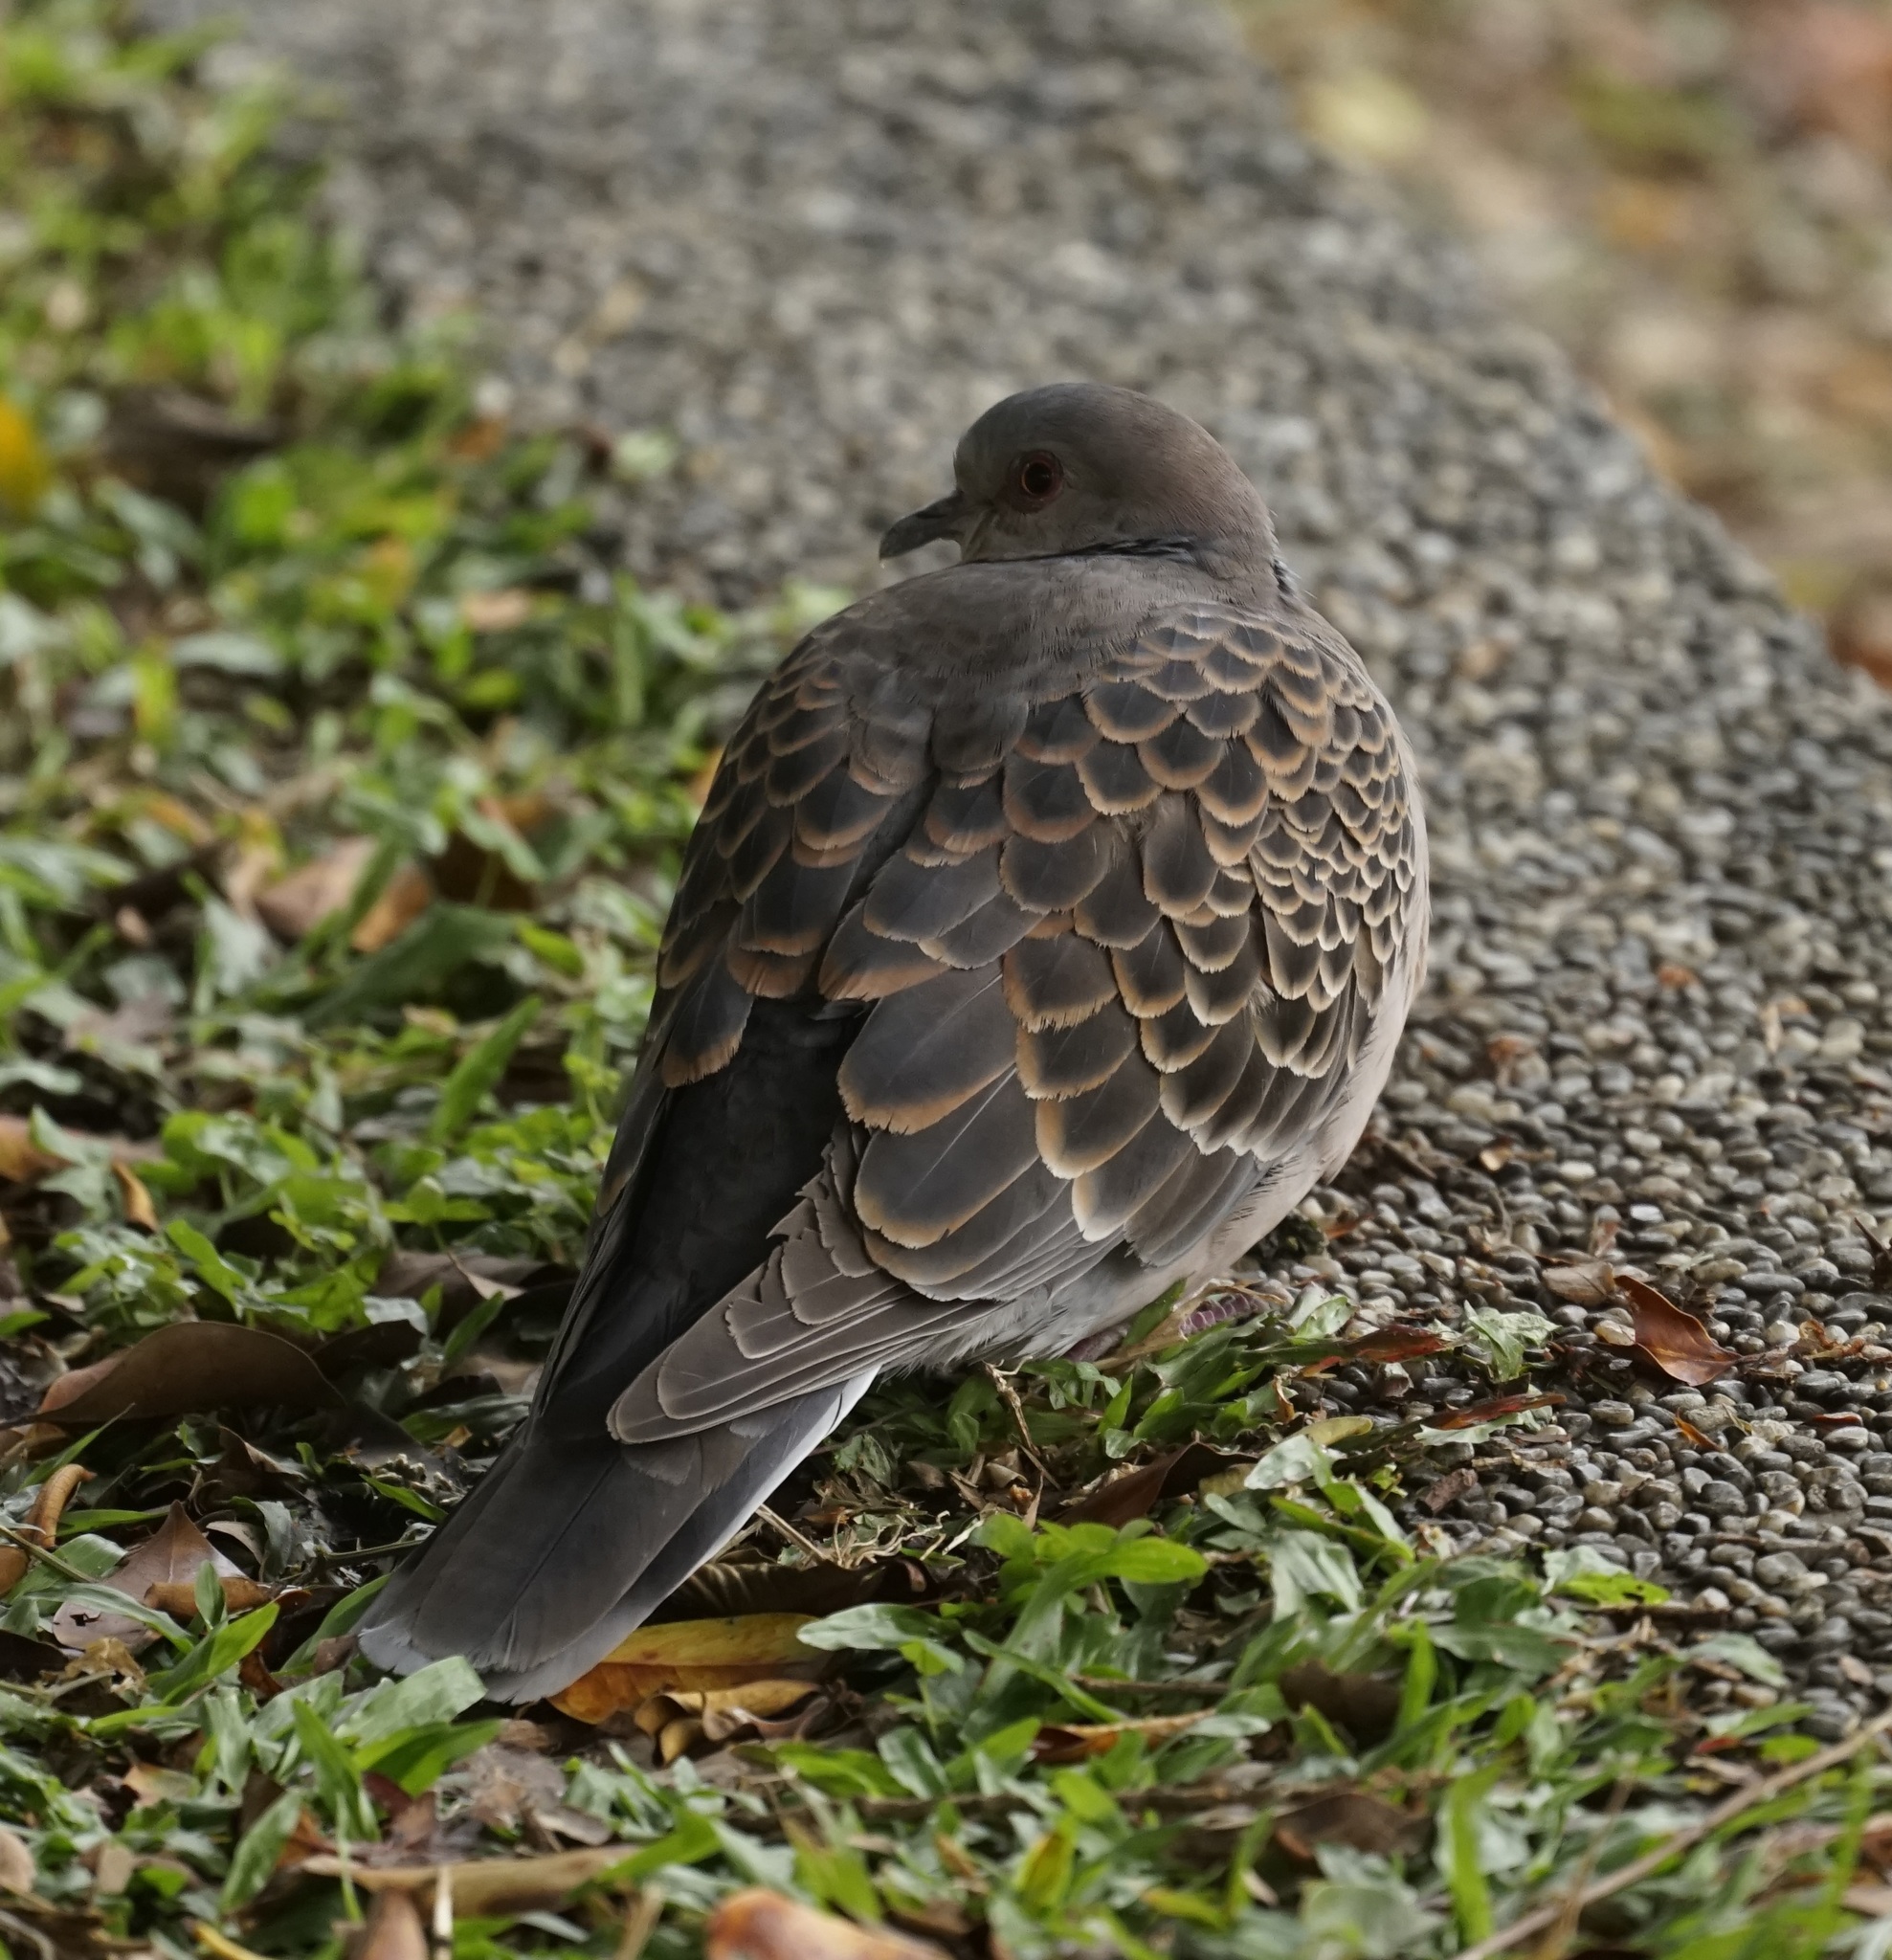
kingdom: Animalia
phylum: Chordata
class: Aves
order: Columbiformes
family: Columbidae
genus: Streptopelia
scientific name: Streptopelia orientalis
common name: Oriental turtle dove
